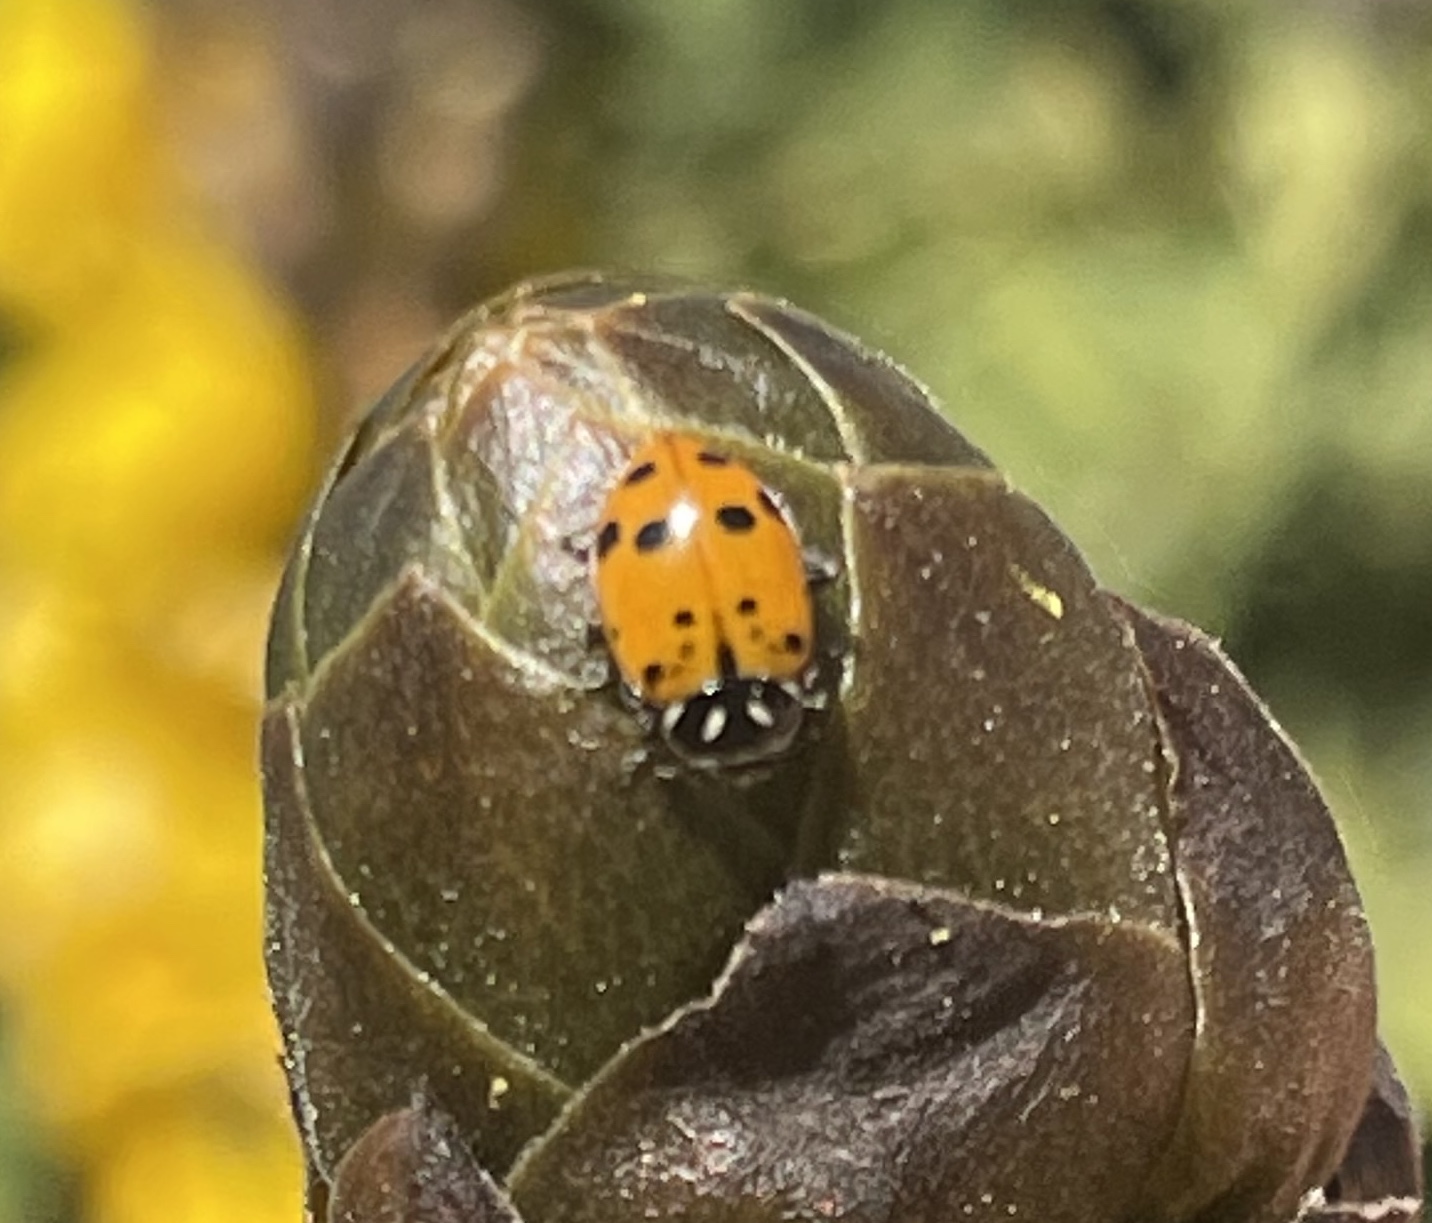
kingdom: Animalia
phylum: Arthropoda
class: Insecta
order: Coleoptera
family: Coccinellidae
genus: Hippodamia
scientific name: Hippodamia convergens
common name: Convergent lady beetle
